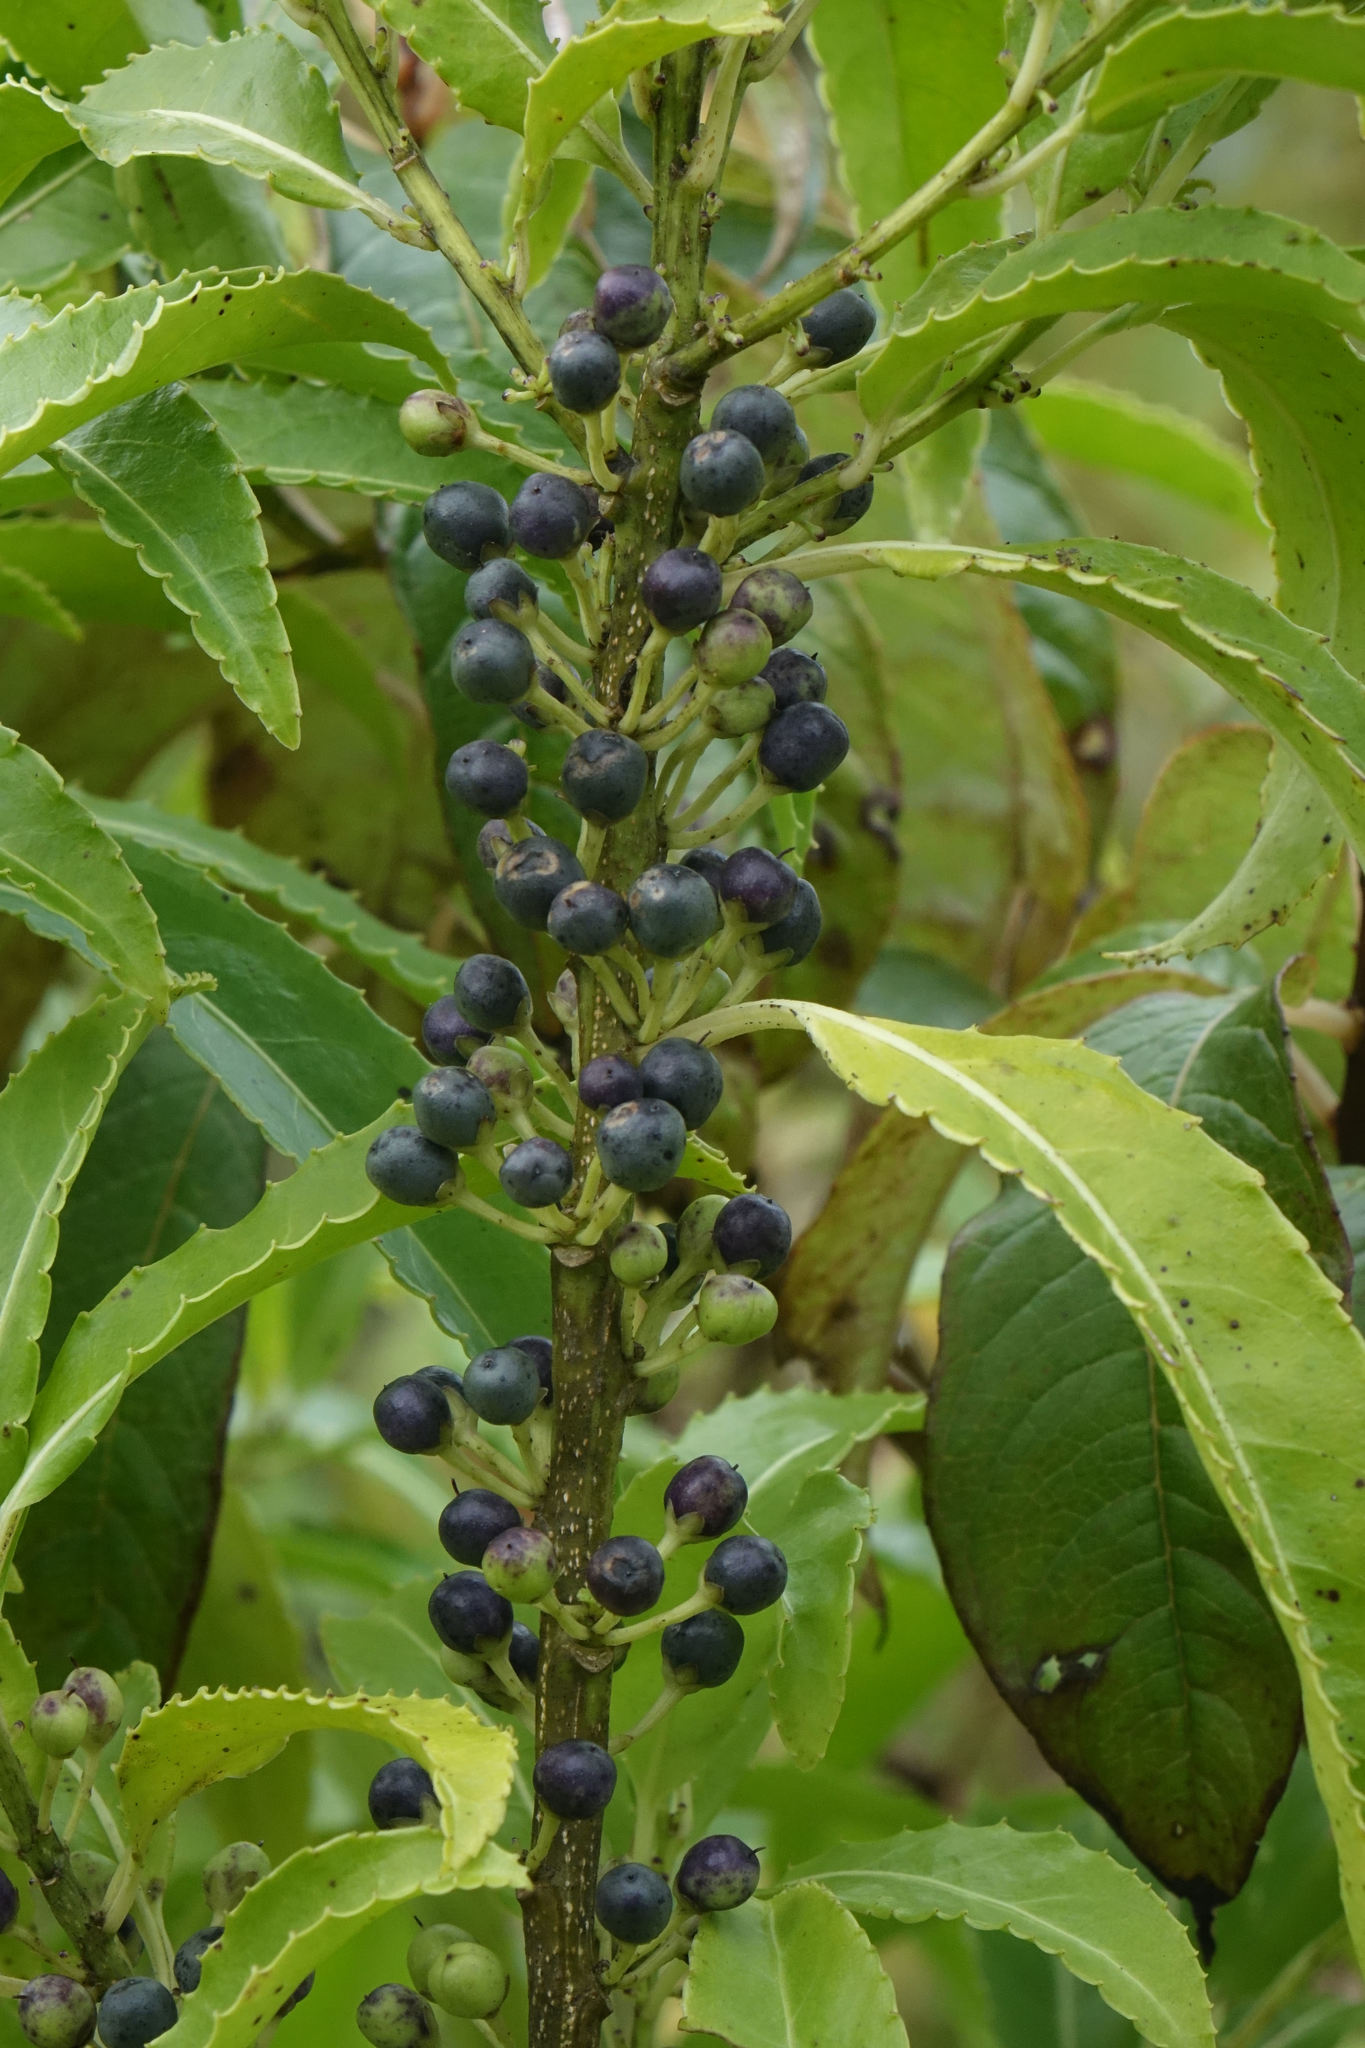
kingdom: Plantae
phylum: Tracheophyta
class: Magnoliopsida
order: Malpighiales
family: Violaceae
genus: Melicytus
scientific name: Melicytus lanceolatus
